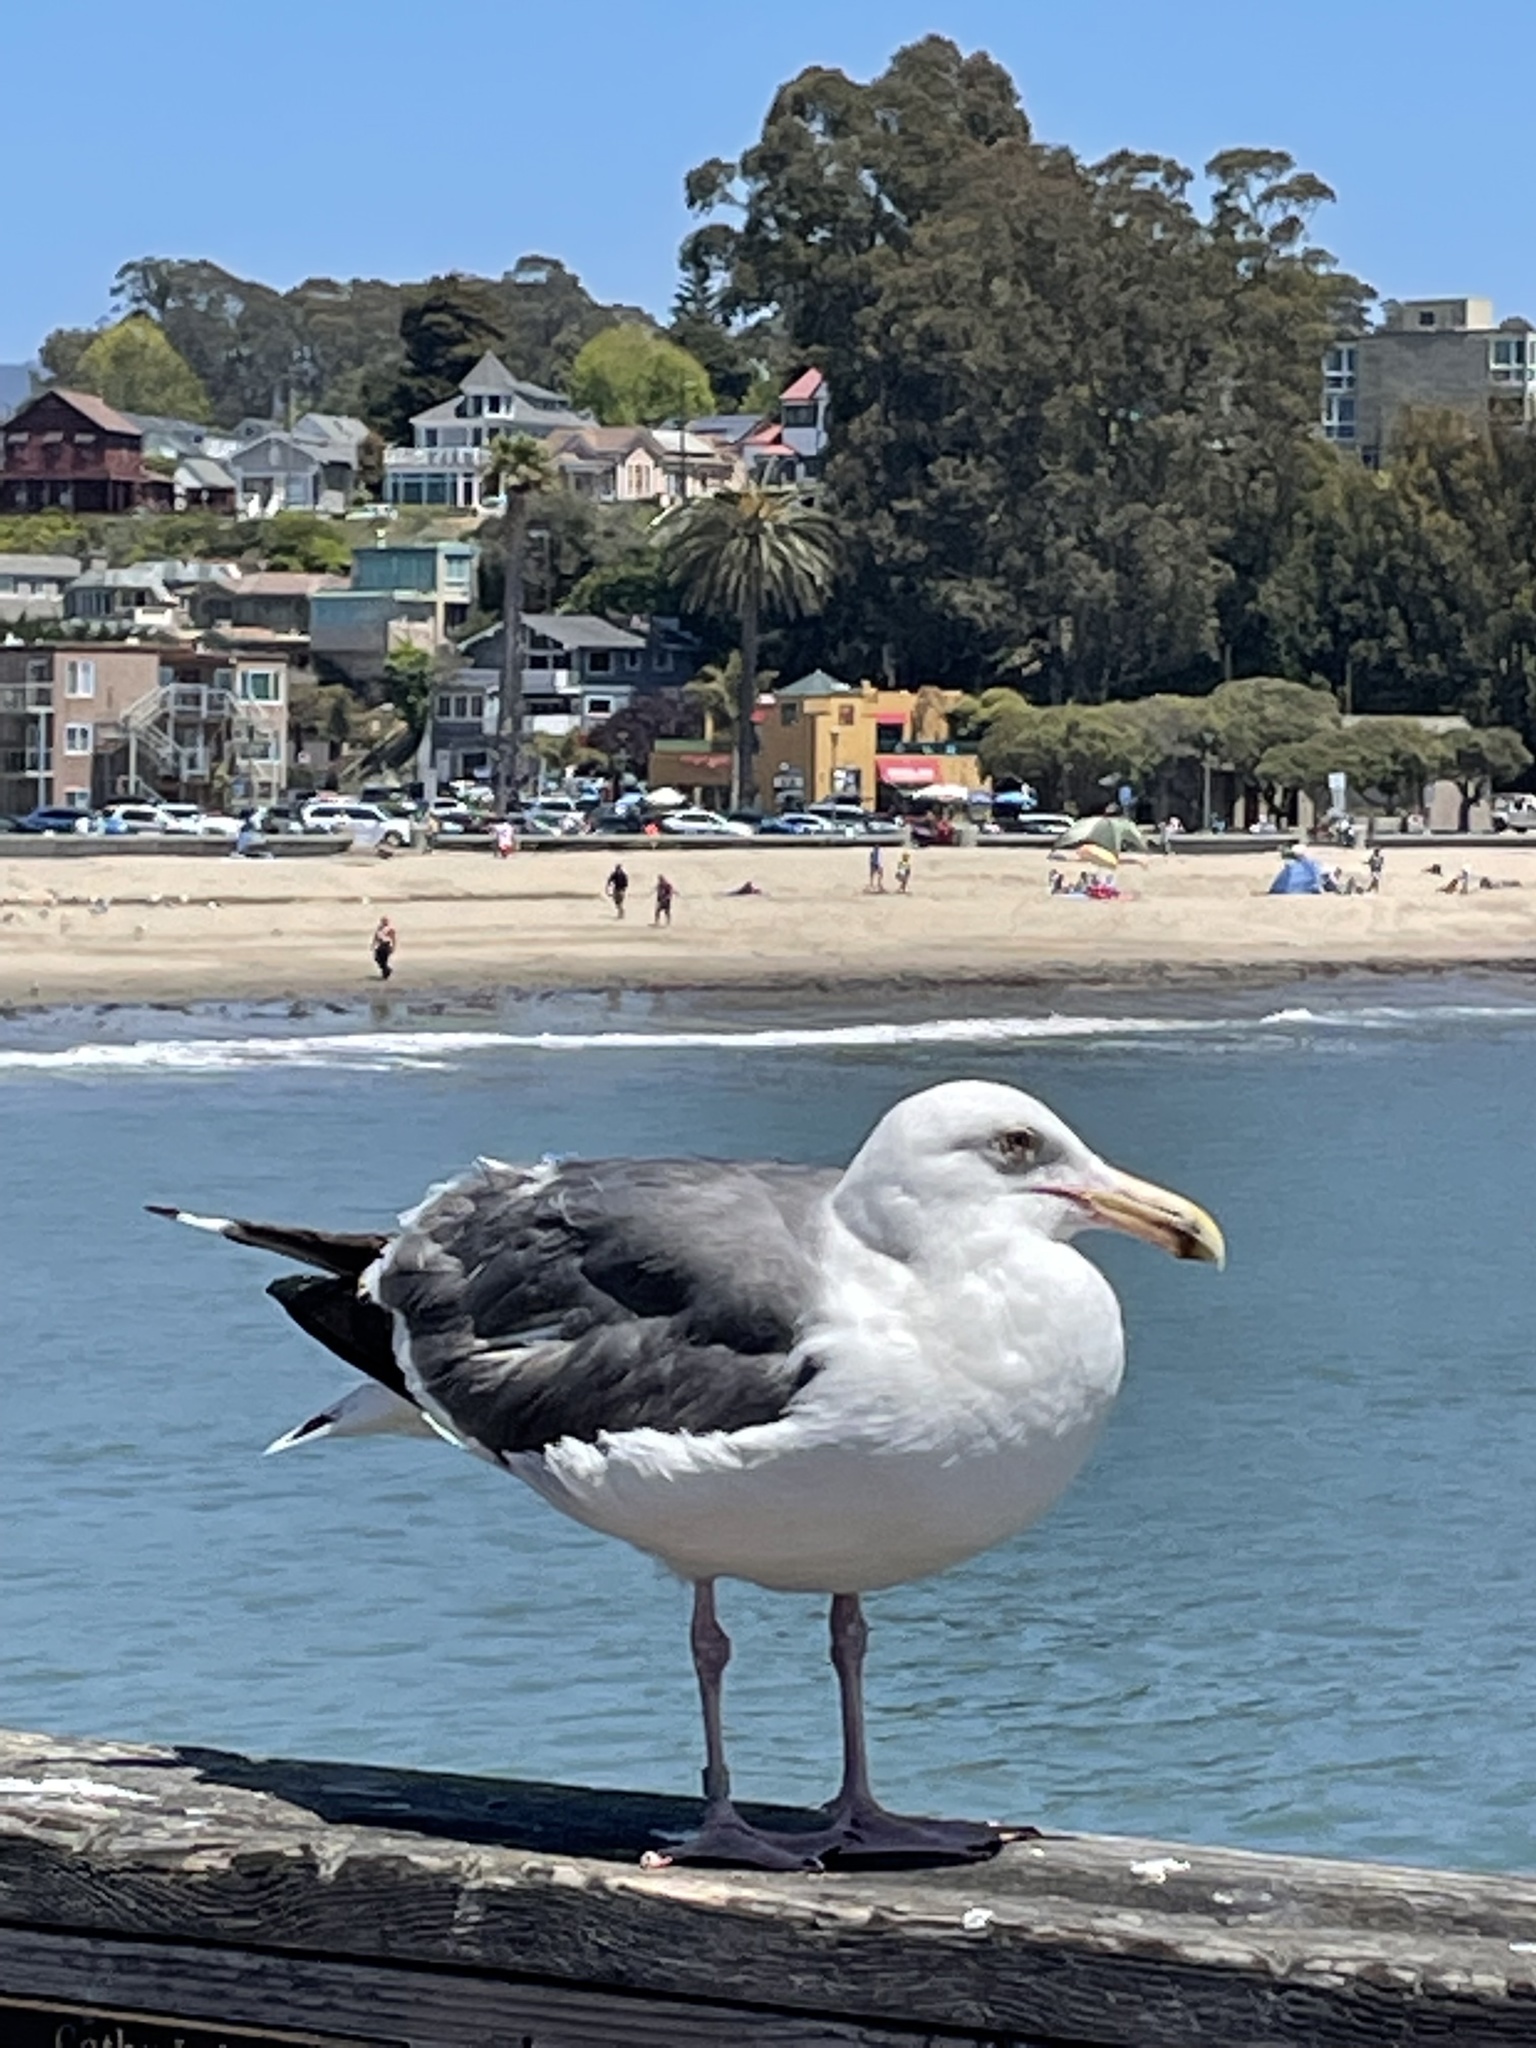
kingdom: Animalia
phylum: Chordata
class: Aves
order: Charadriiformes
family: Laridae
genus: Larus
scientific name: Larus occidentalis
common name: Western gull
